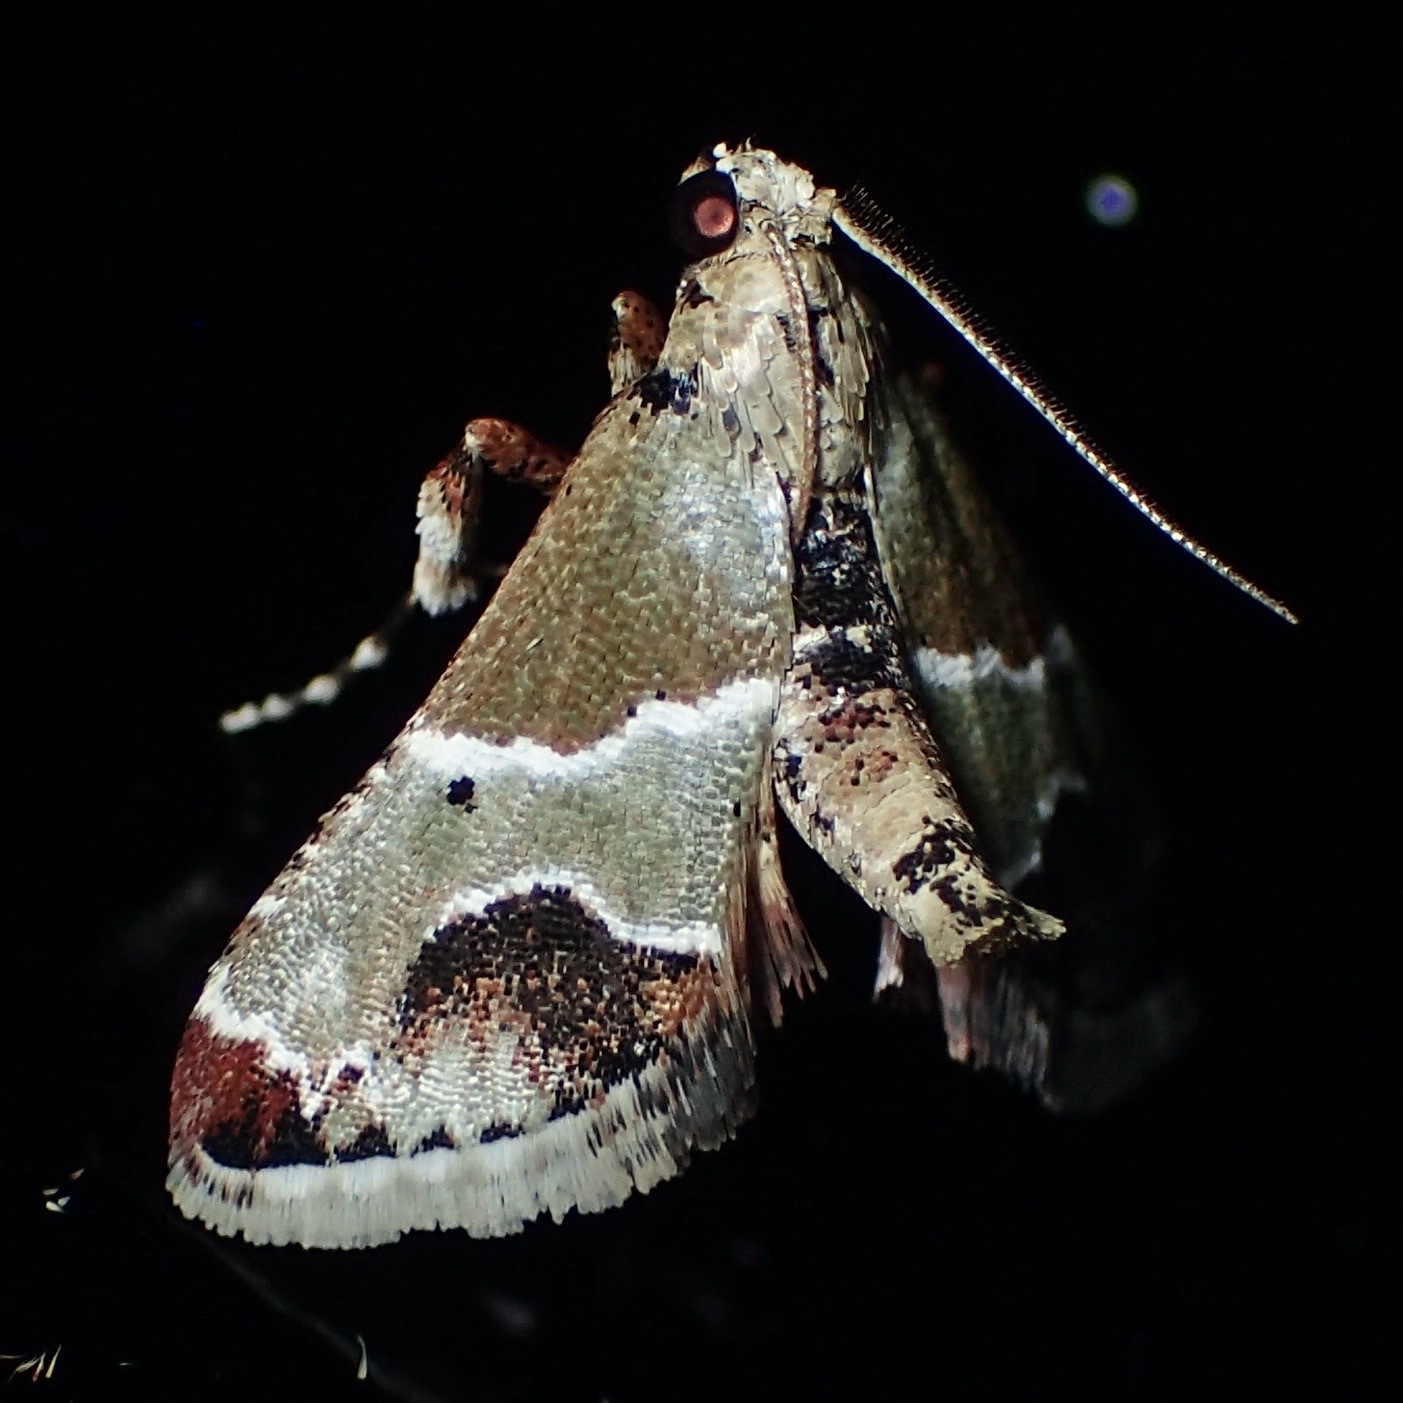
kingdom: Animalia
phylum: Arthropoda
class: Insecta
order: Lepidoptera
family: Pyralidae
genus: Arescoptera
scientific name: Arescoptera idiotypa
